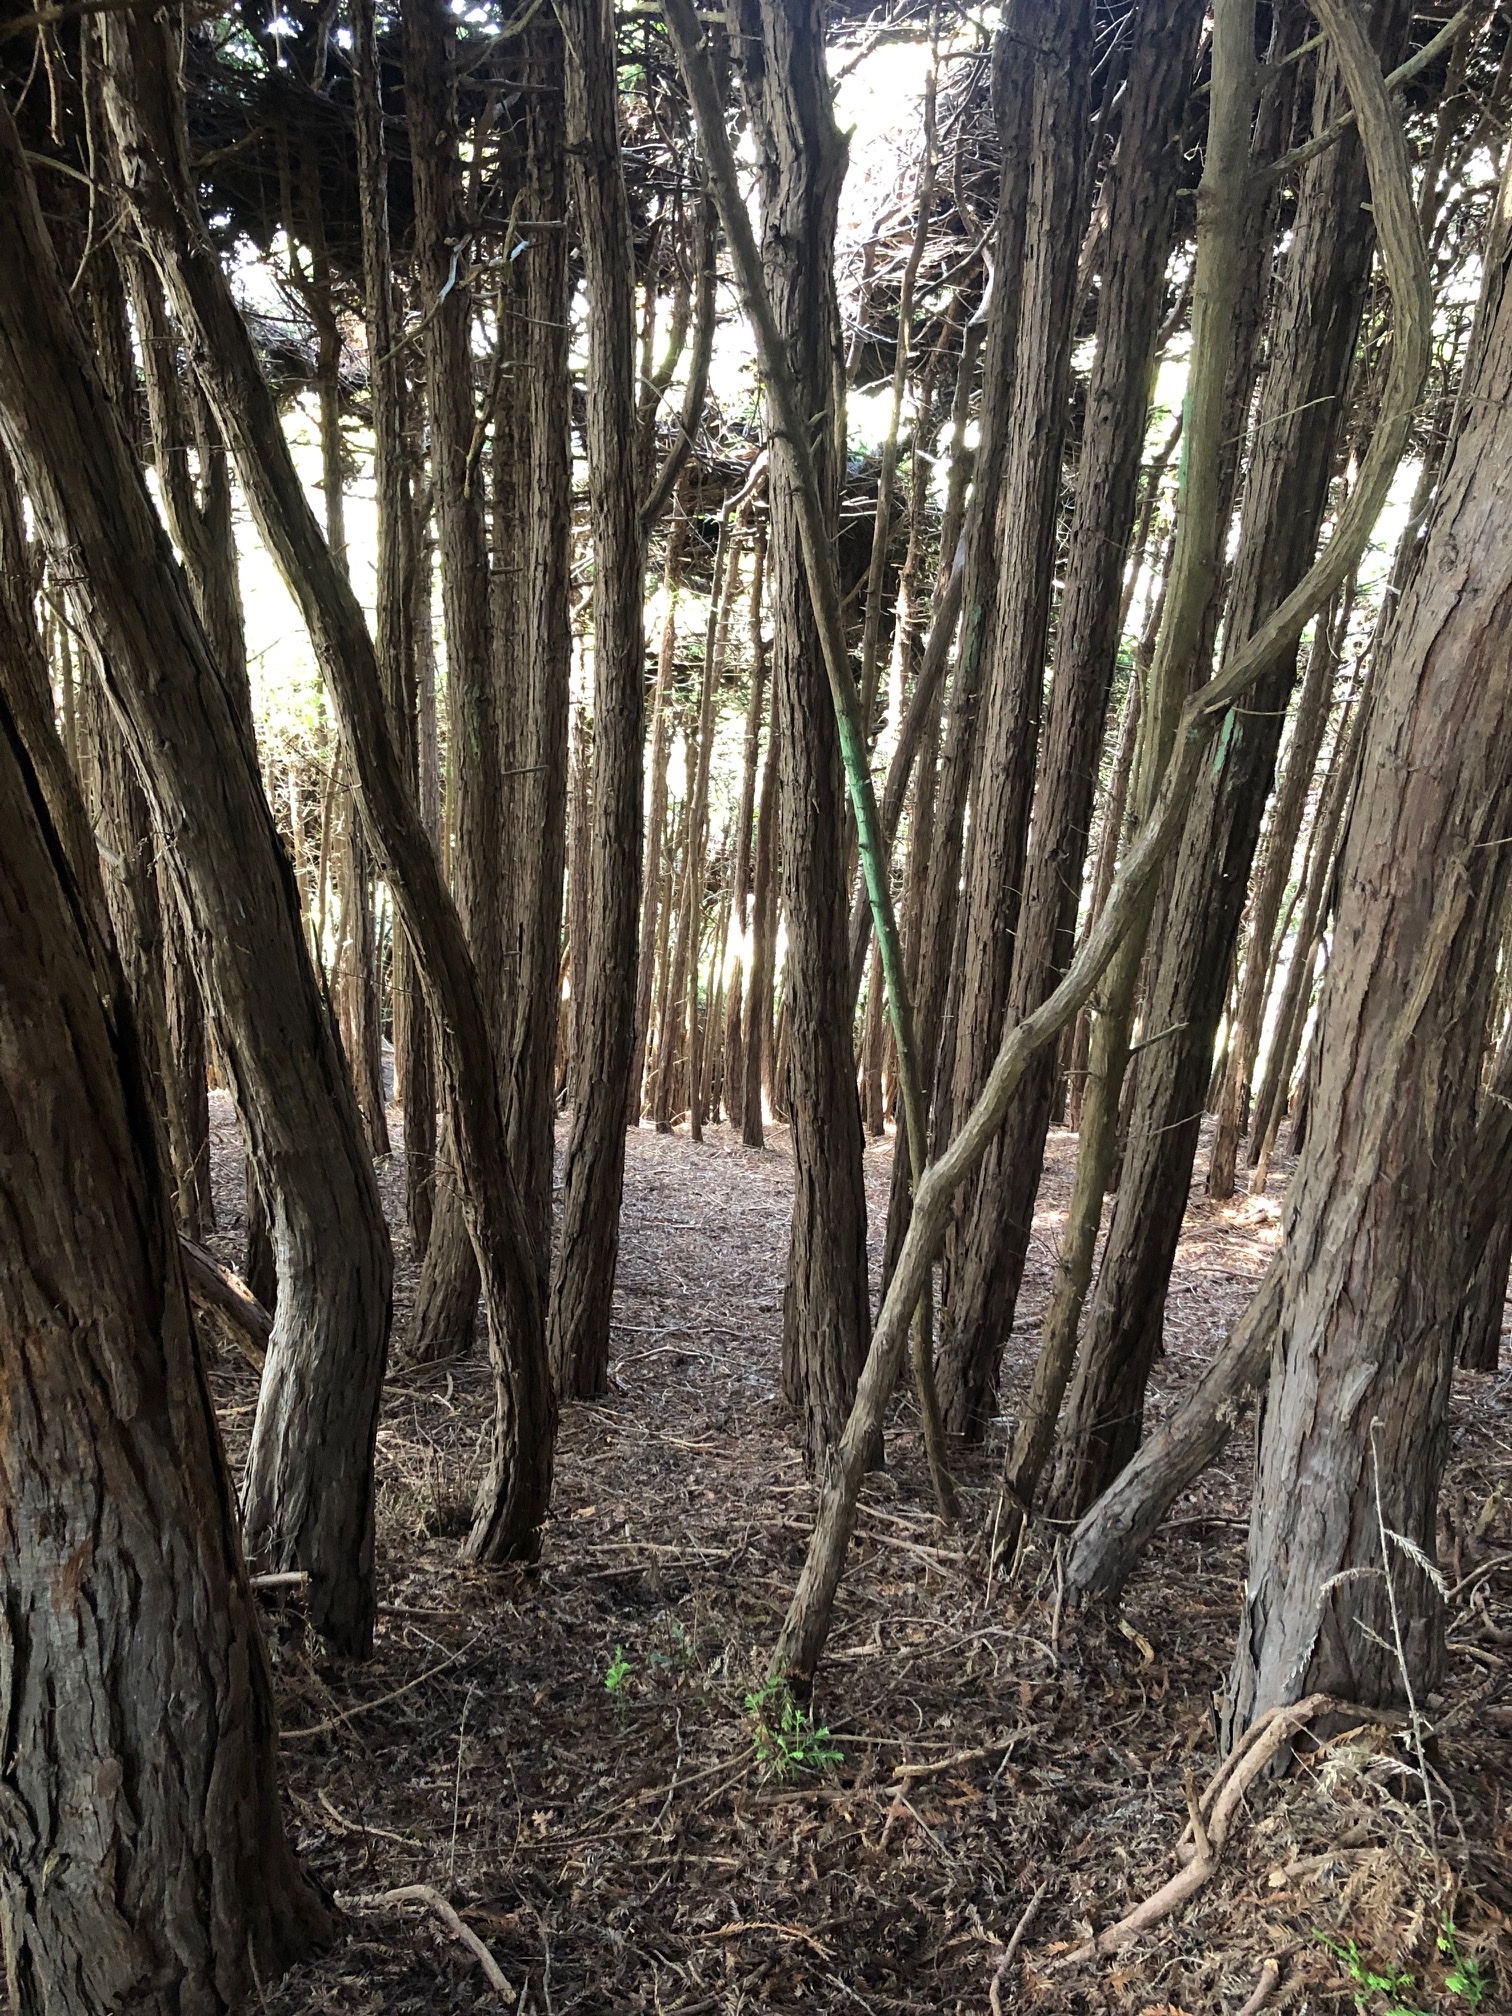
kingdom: Plantae
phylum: Tracheophyta
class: Pinopsida
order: Pinales
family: Cupressaceae
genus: Sequoia
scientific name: Sequoia sempervirens
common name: Coast redwood
